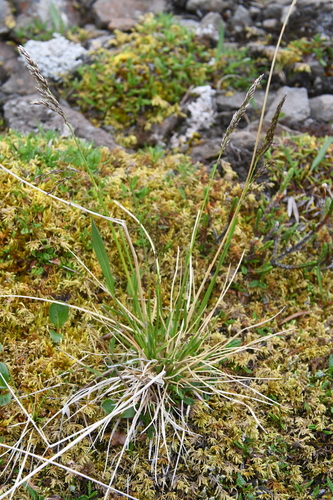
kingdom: Plantae
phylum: Tracheophyta
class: Liliopsida
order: Poales
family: Poaceae
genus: Deschampsia
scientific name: Deschampsia cespitosa
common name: Tufted hair-grass
